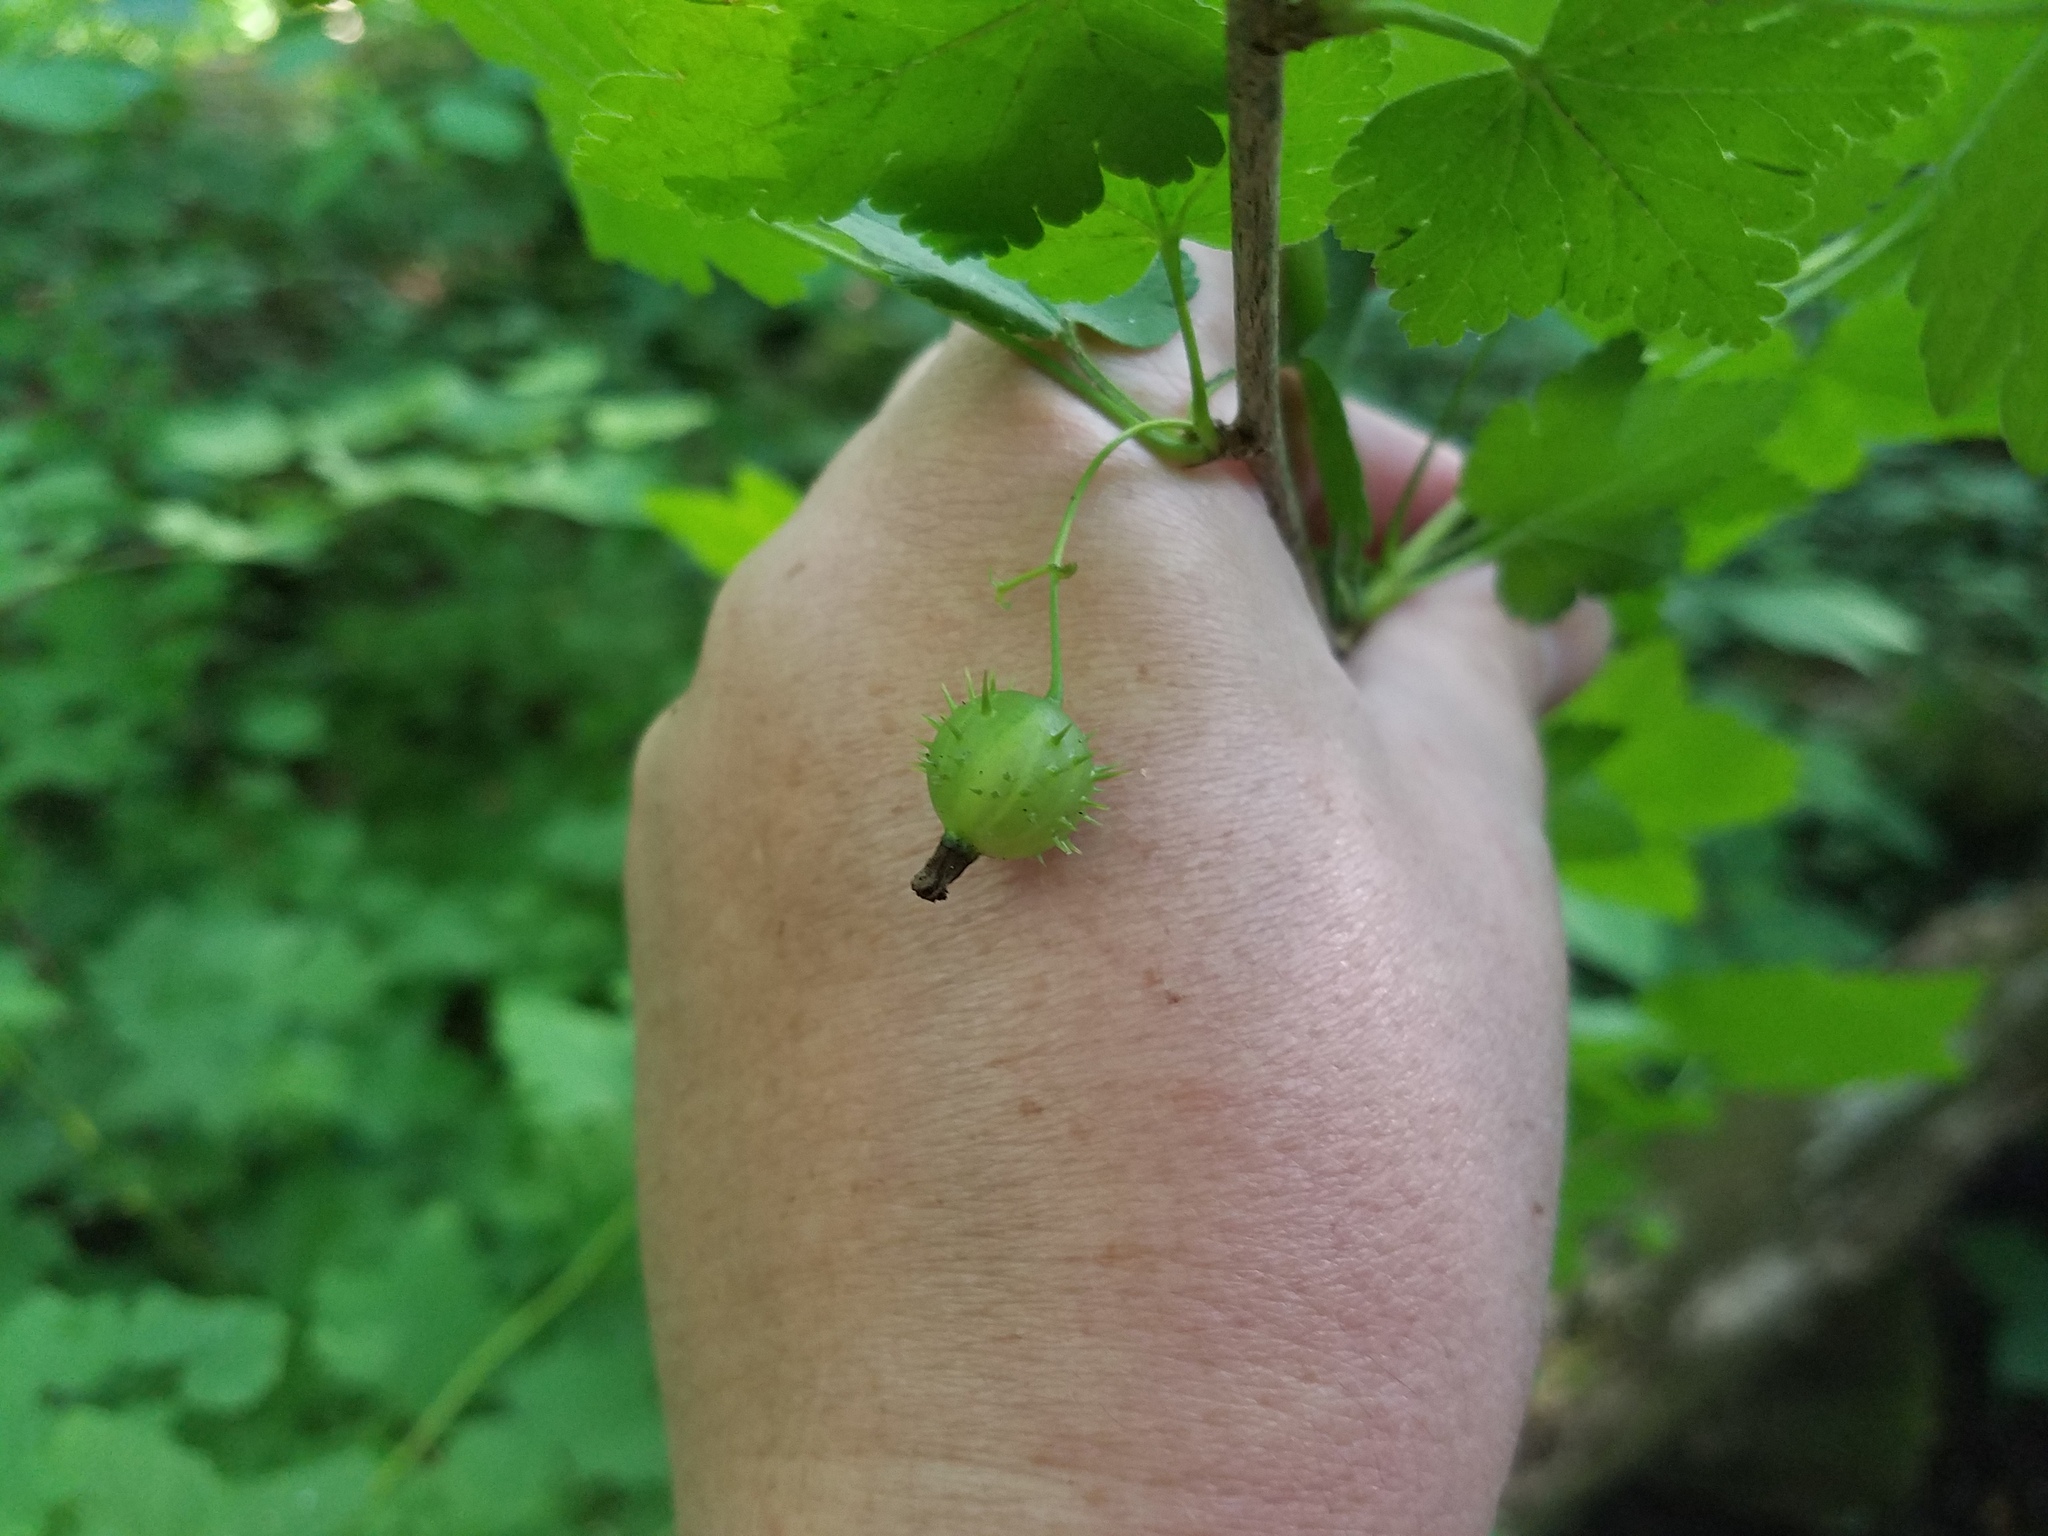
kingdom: Plantae
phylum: Tracheophyta
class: Magnoliopsida
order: Saxifragales
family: Grossulariaceae
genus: Ribes
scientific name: Ribes cynosbati
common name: American gooseberry
